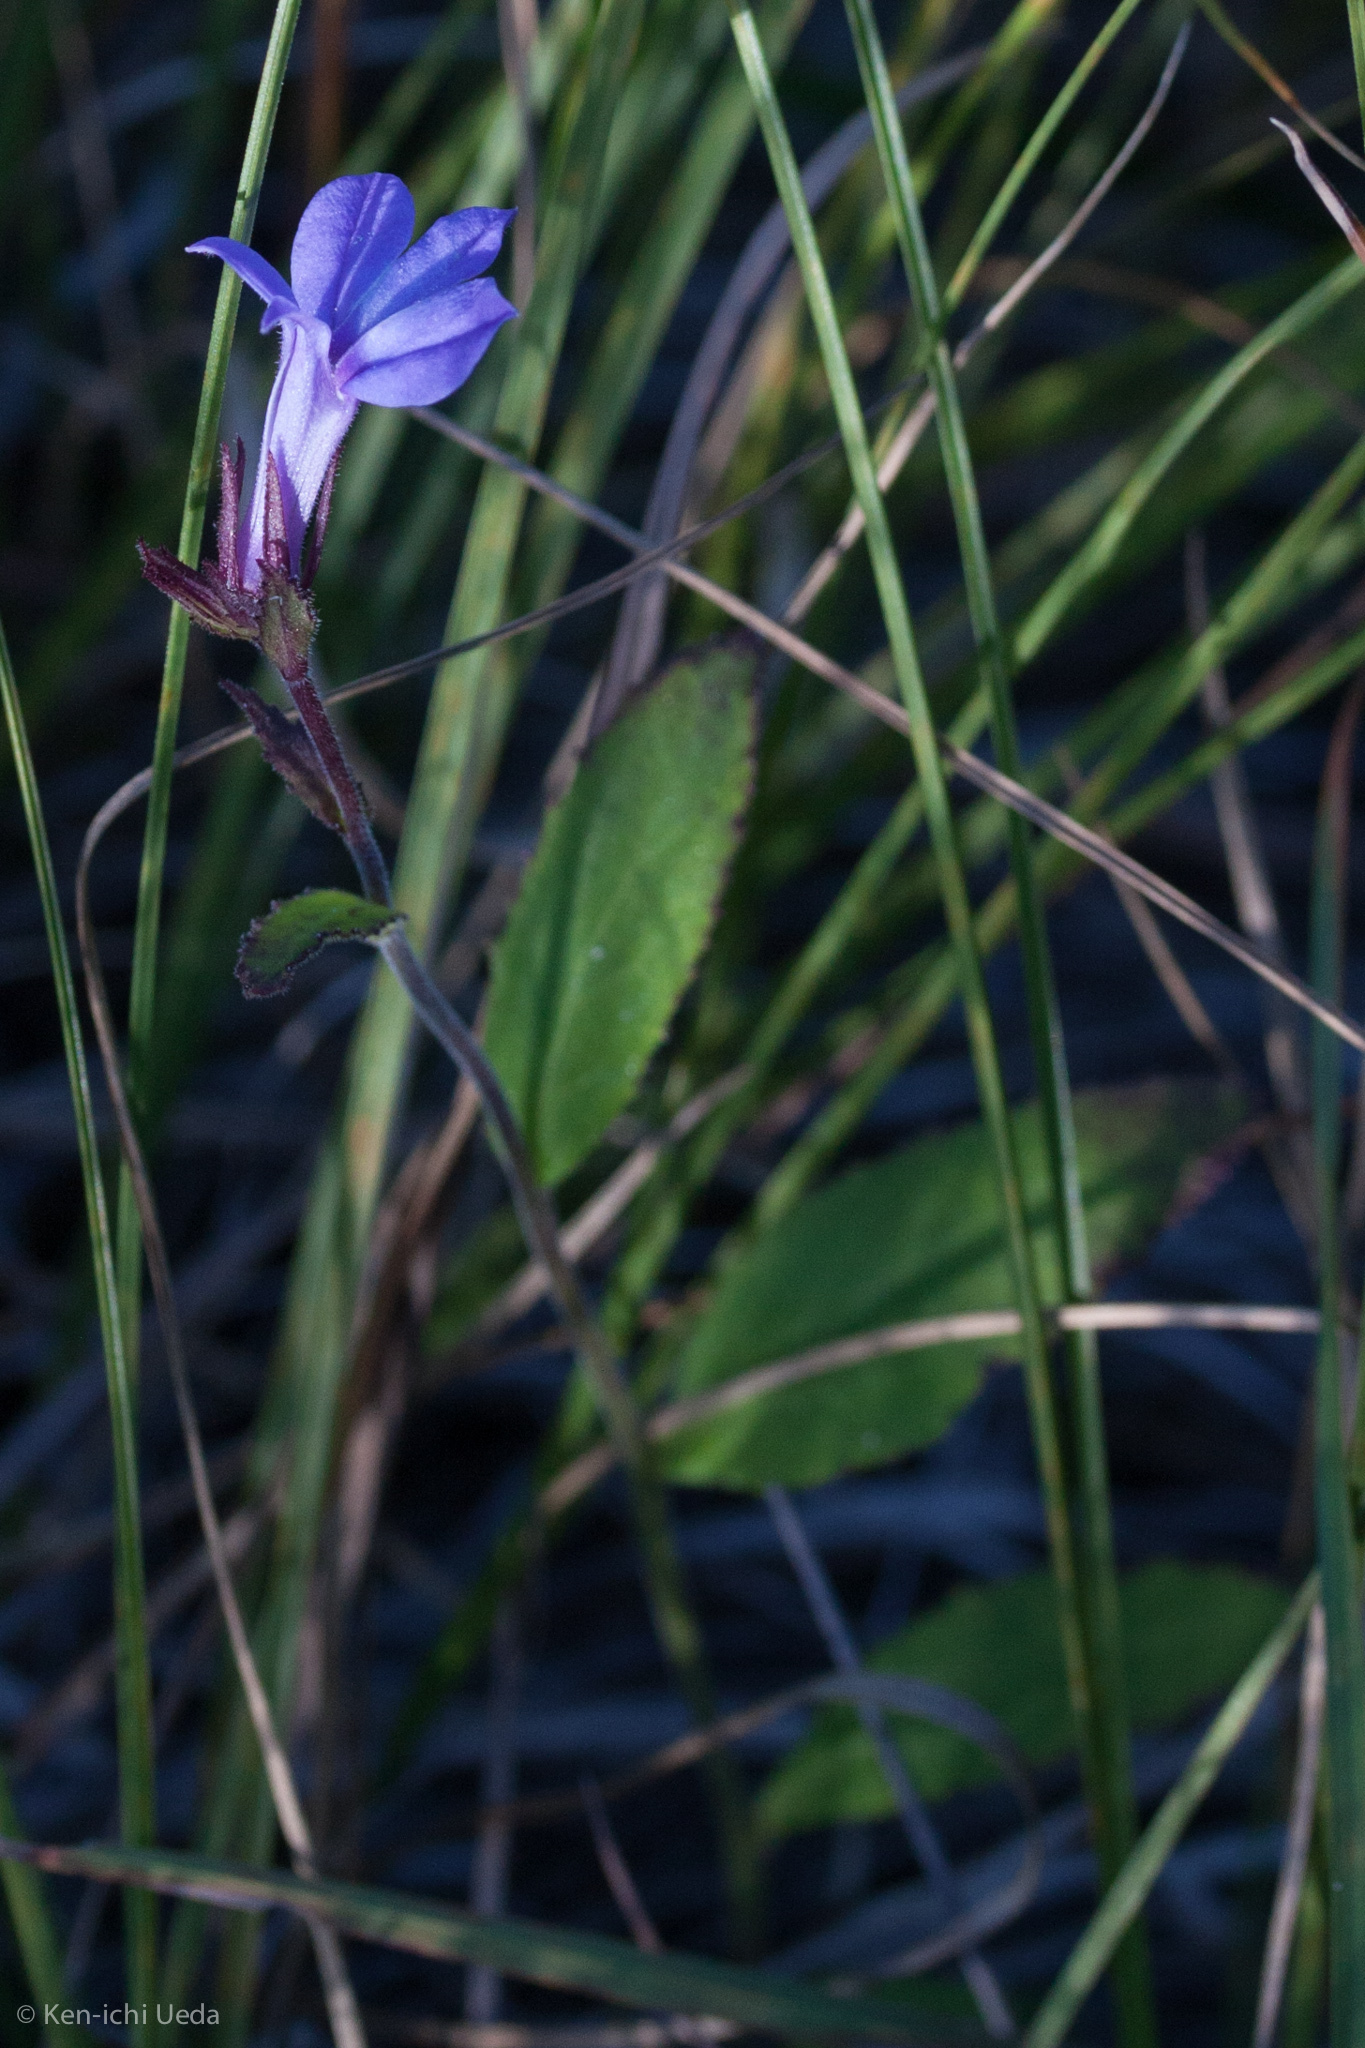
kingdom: Plantae
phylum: Tracheophyta
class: Magnoliopsida
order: Asterales
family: Campanulaceae
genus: Lobelia
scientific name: Lobelia puberula
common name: Purple dewdrop
